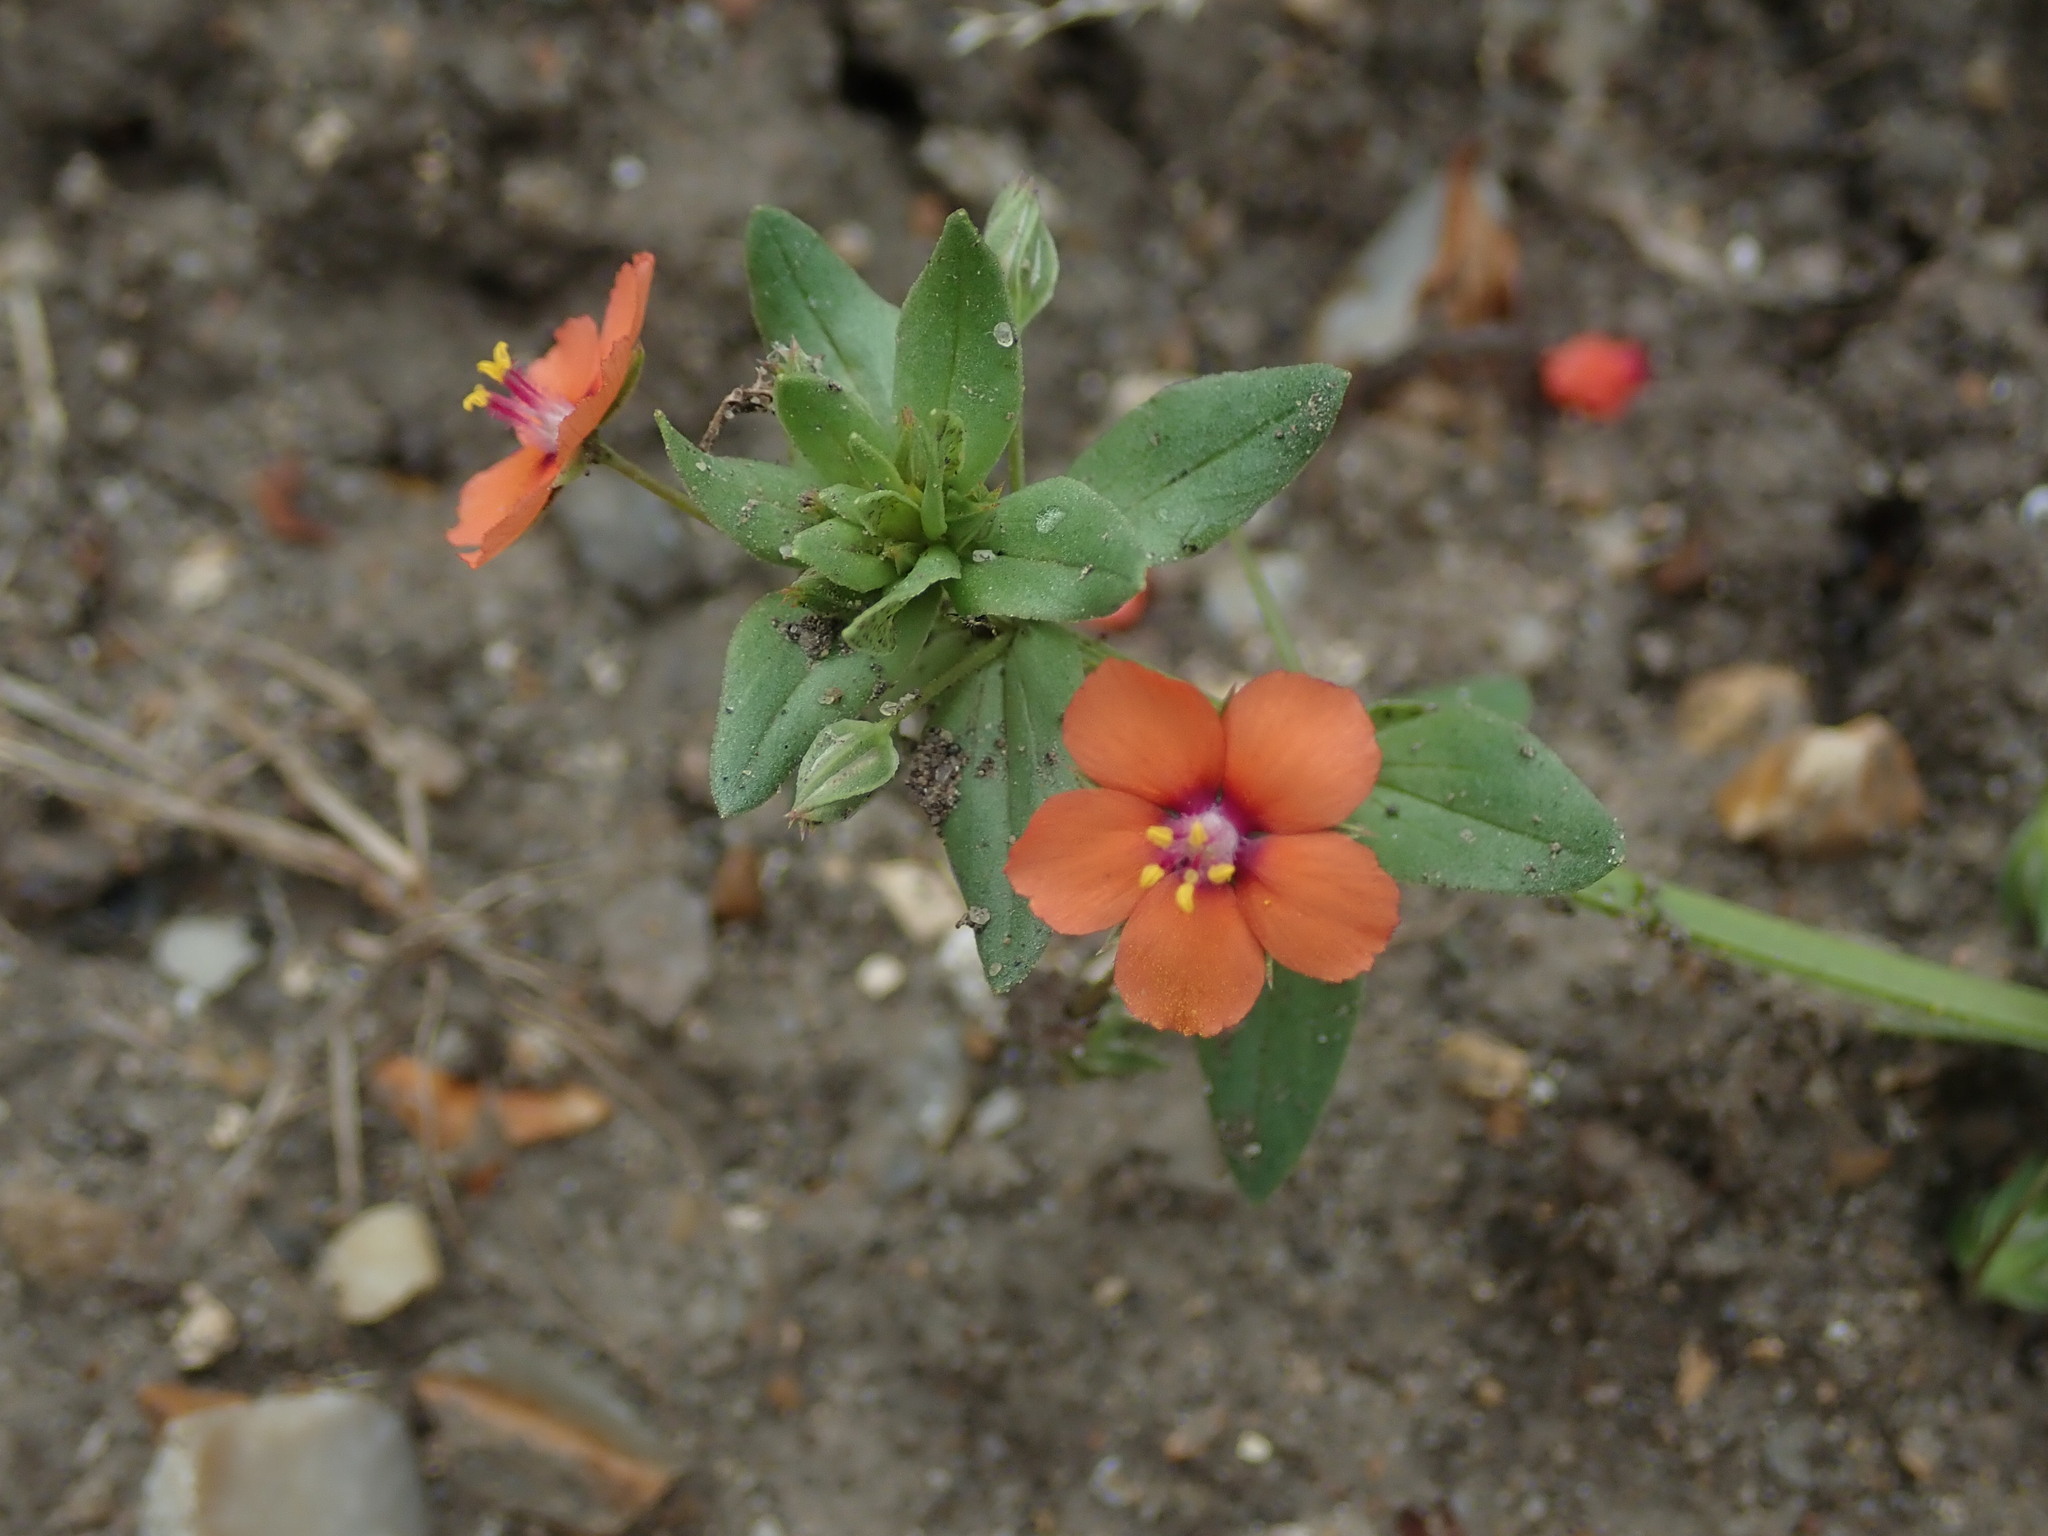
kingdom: Plantae
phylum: Tracheophyta
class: Magnoliopsida
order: Ericales
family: Primulaceae
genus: Lysimachia
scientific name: Lysimachia arvensis
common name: Scarlet pimpernel
